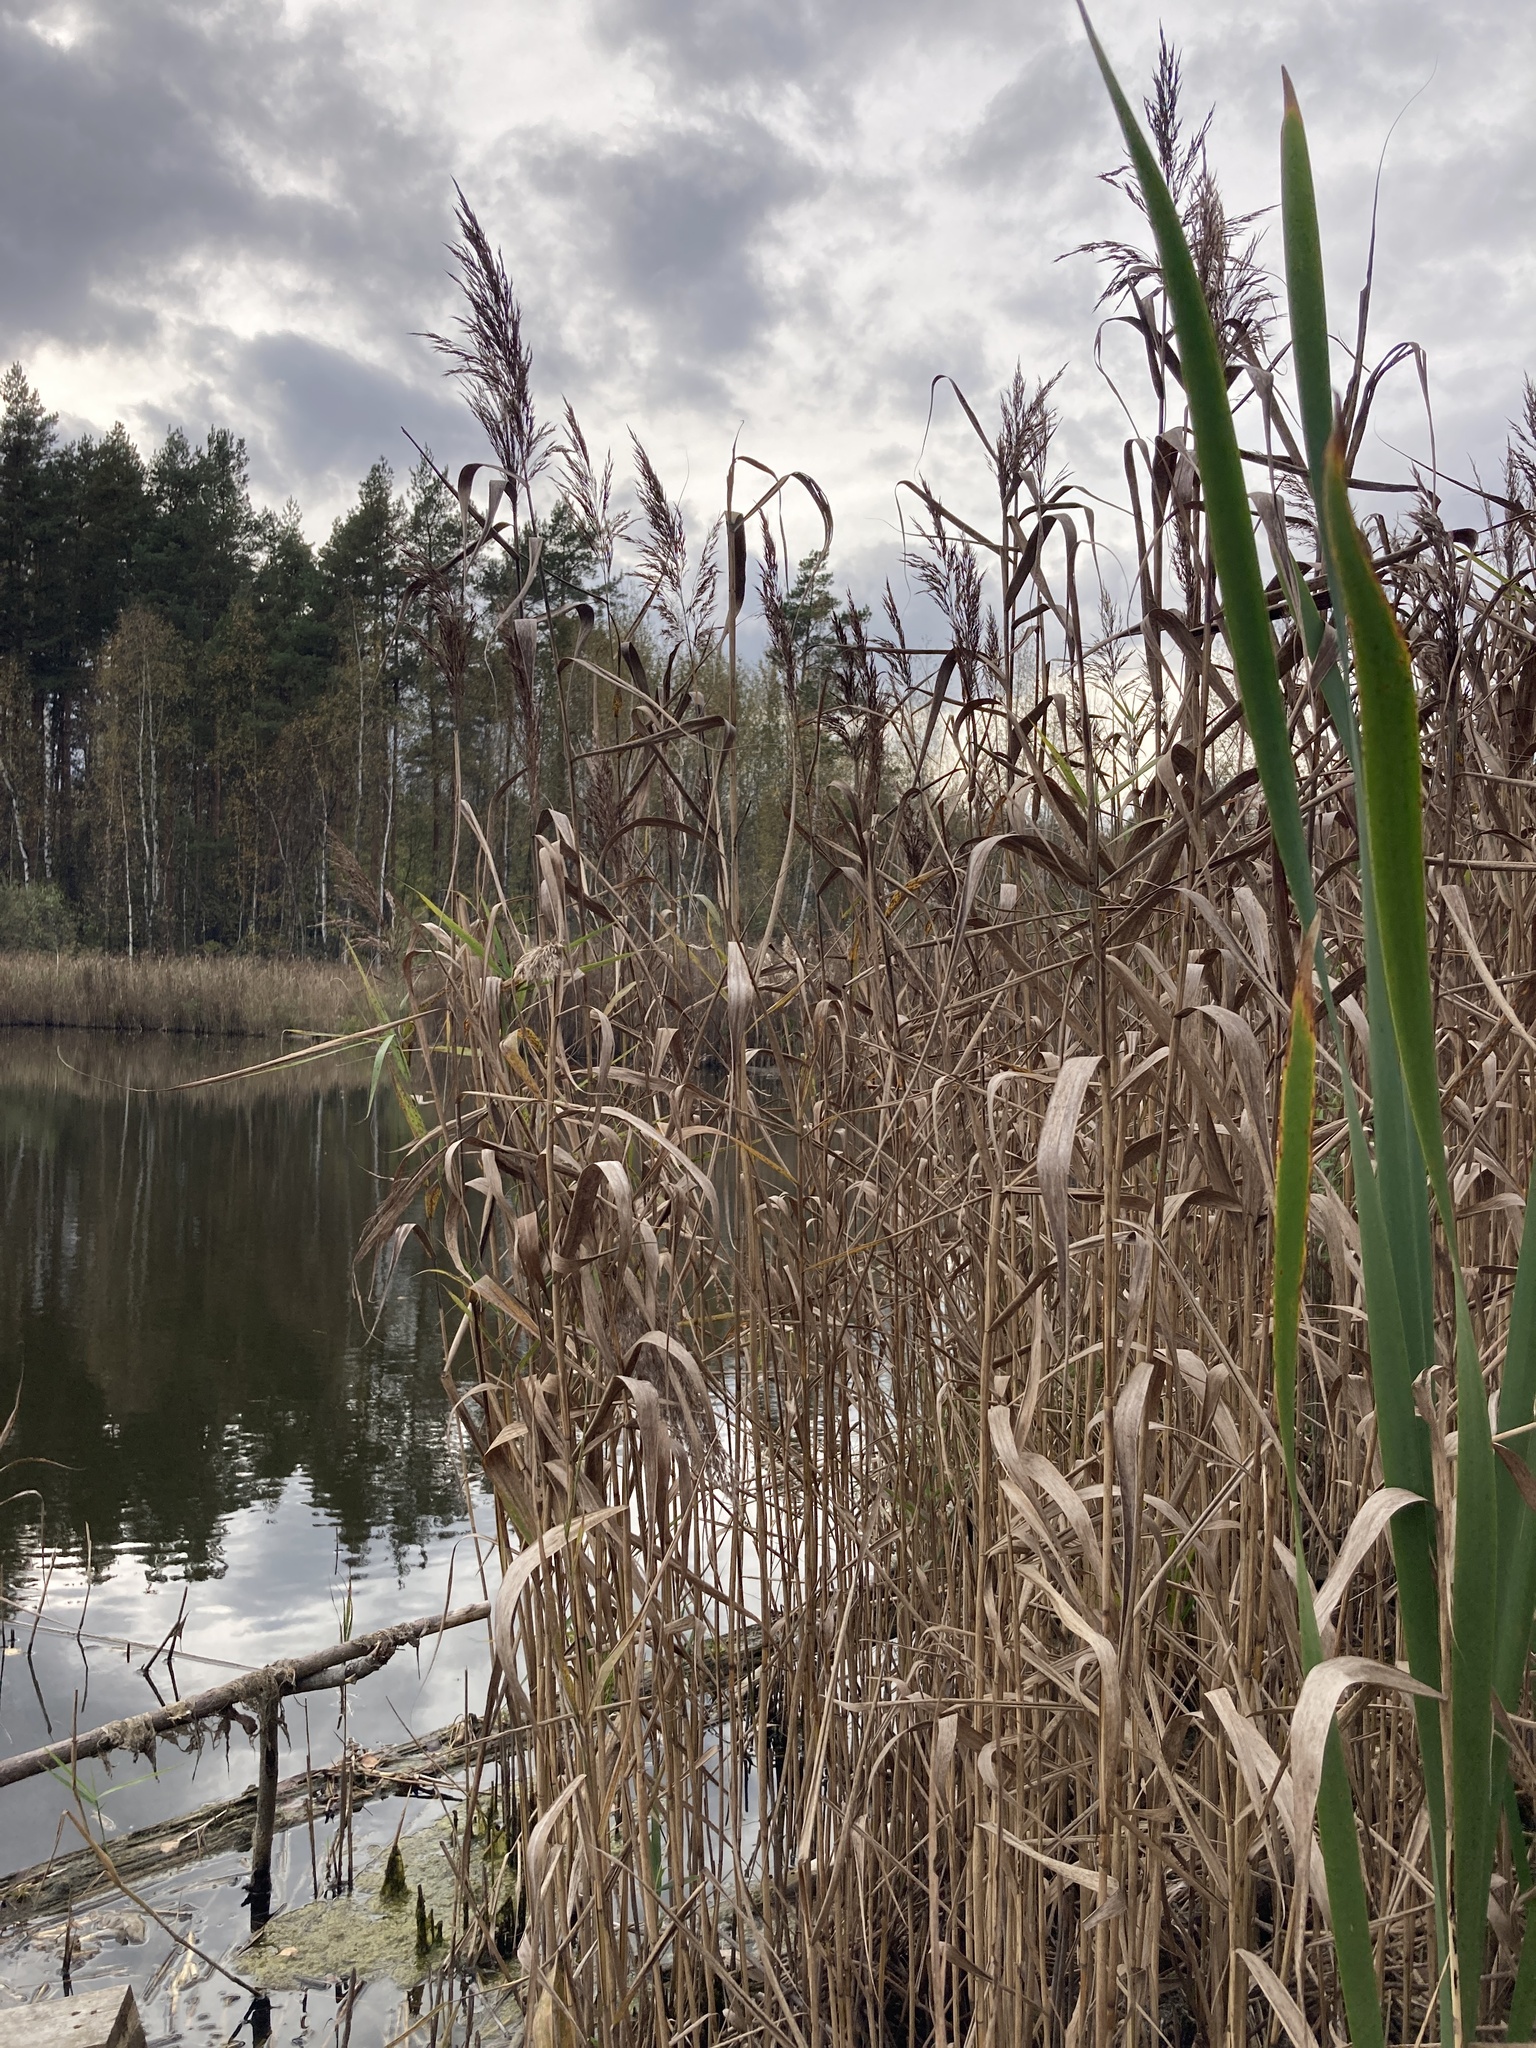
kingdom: Plantae
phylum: Tracheophyta
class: Liliopsida
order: Poales
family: Poaceae
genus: Phragmites
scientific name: Phragmites australis
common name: Common reed
